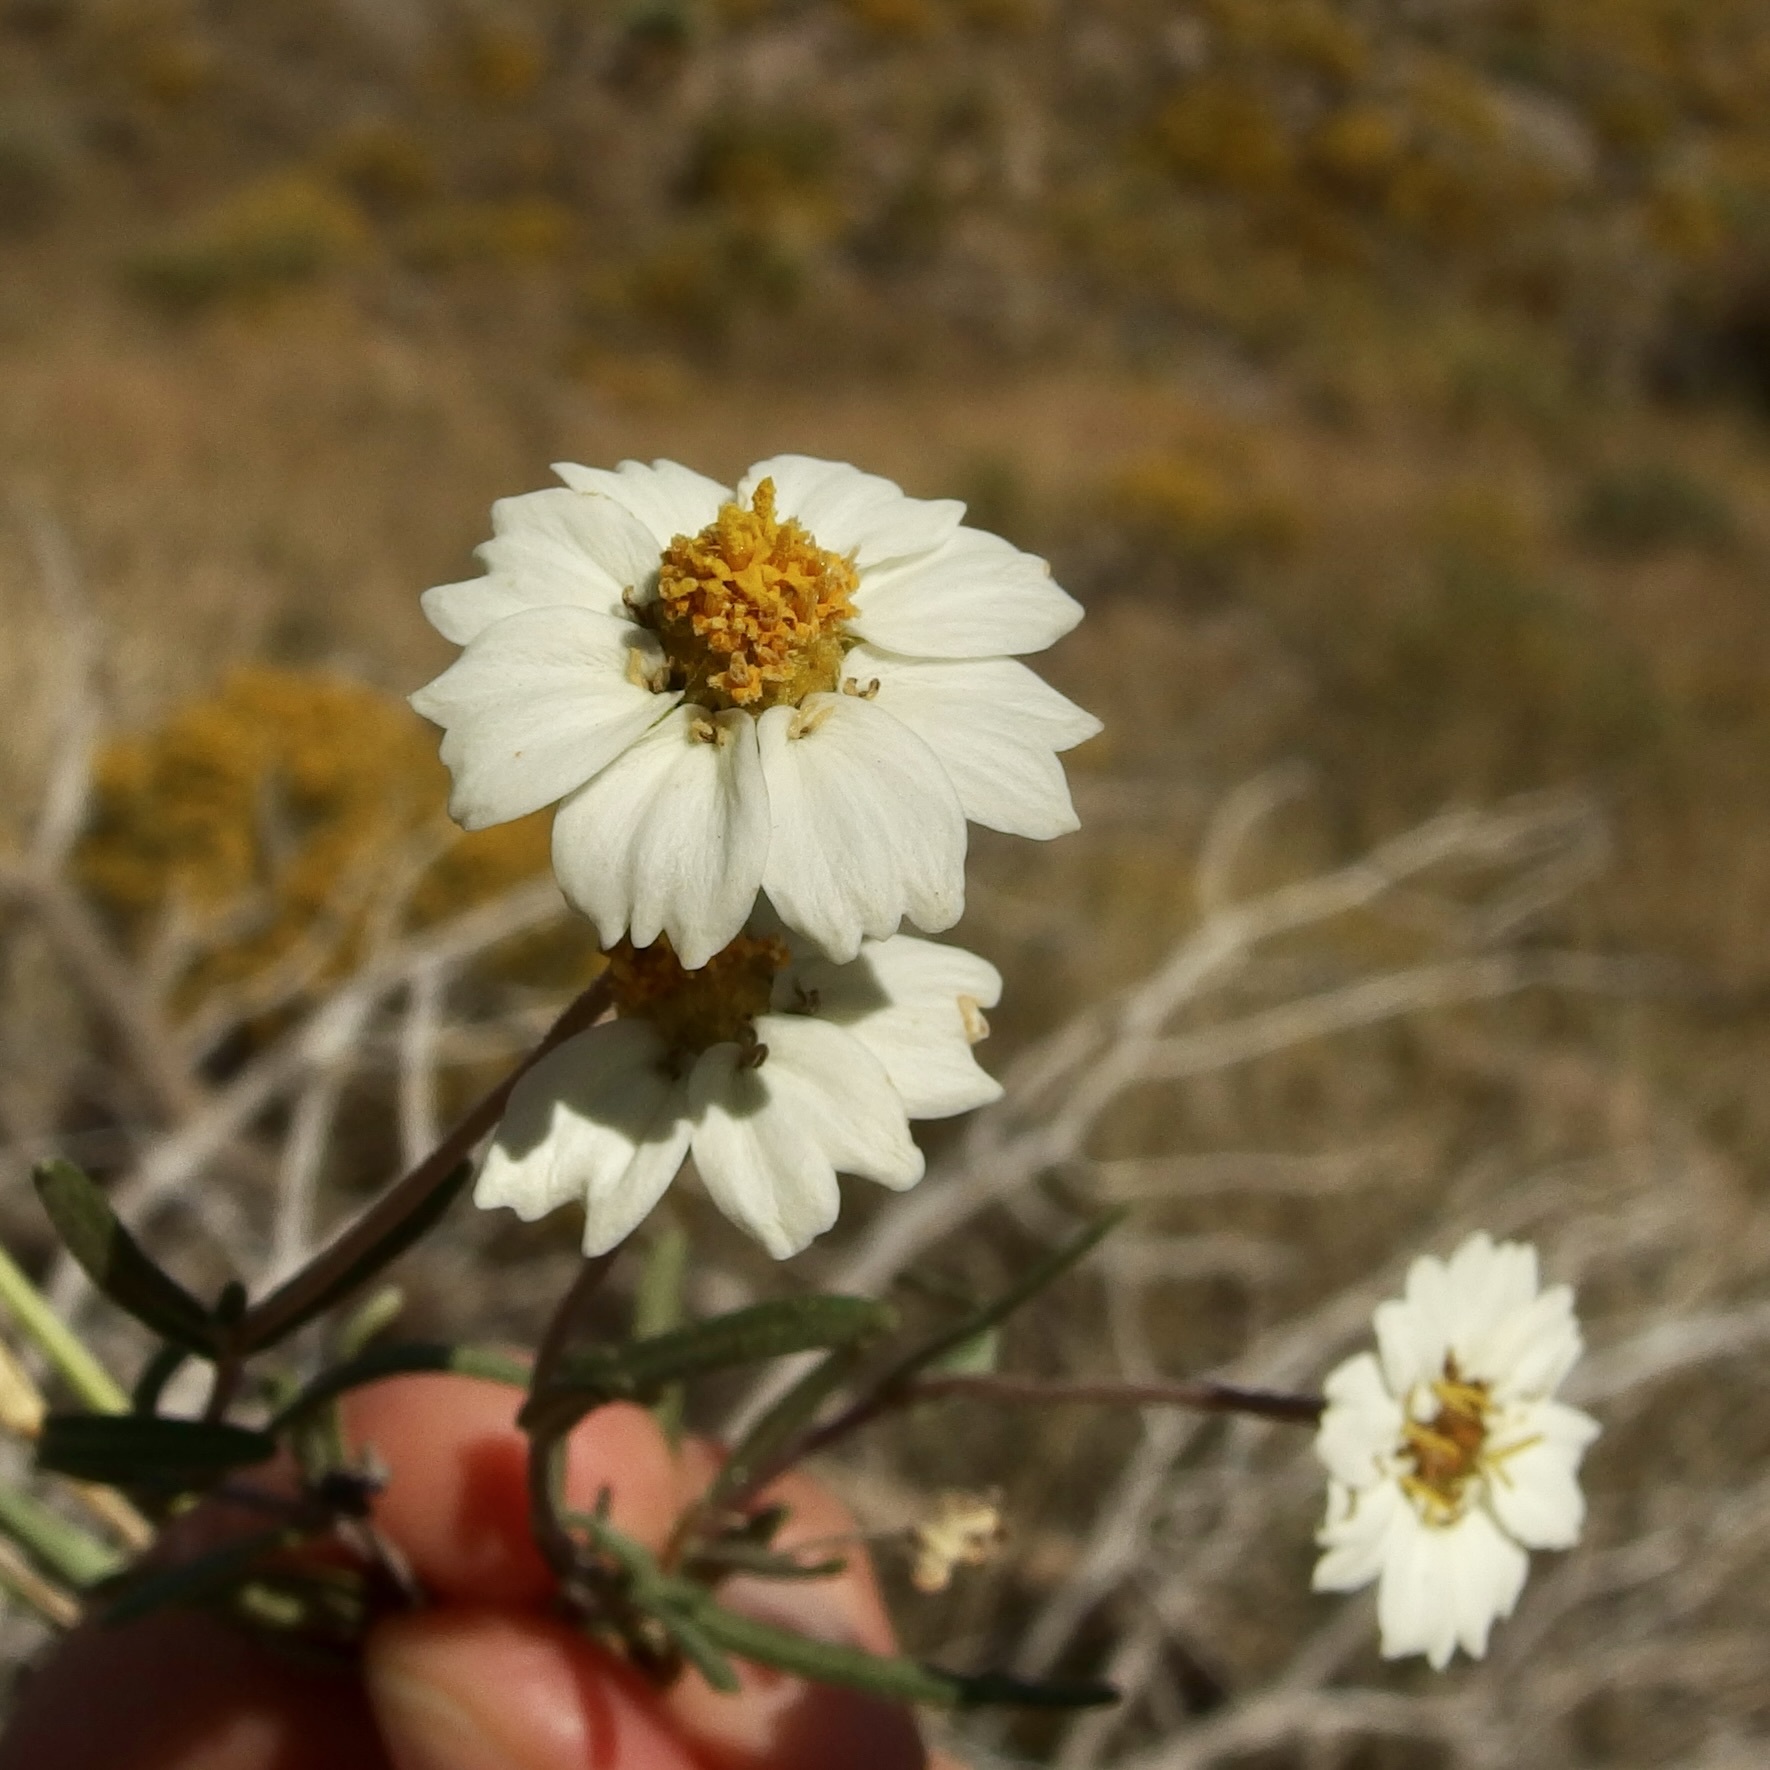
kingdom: Plantae
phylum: Tracheophyta
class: Magnoliopsida
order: Asterales
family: Asteraceae
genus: Melampodium
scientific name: Melampodium leucanthum
